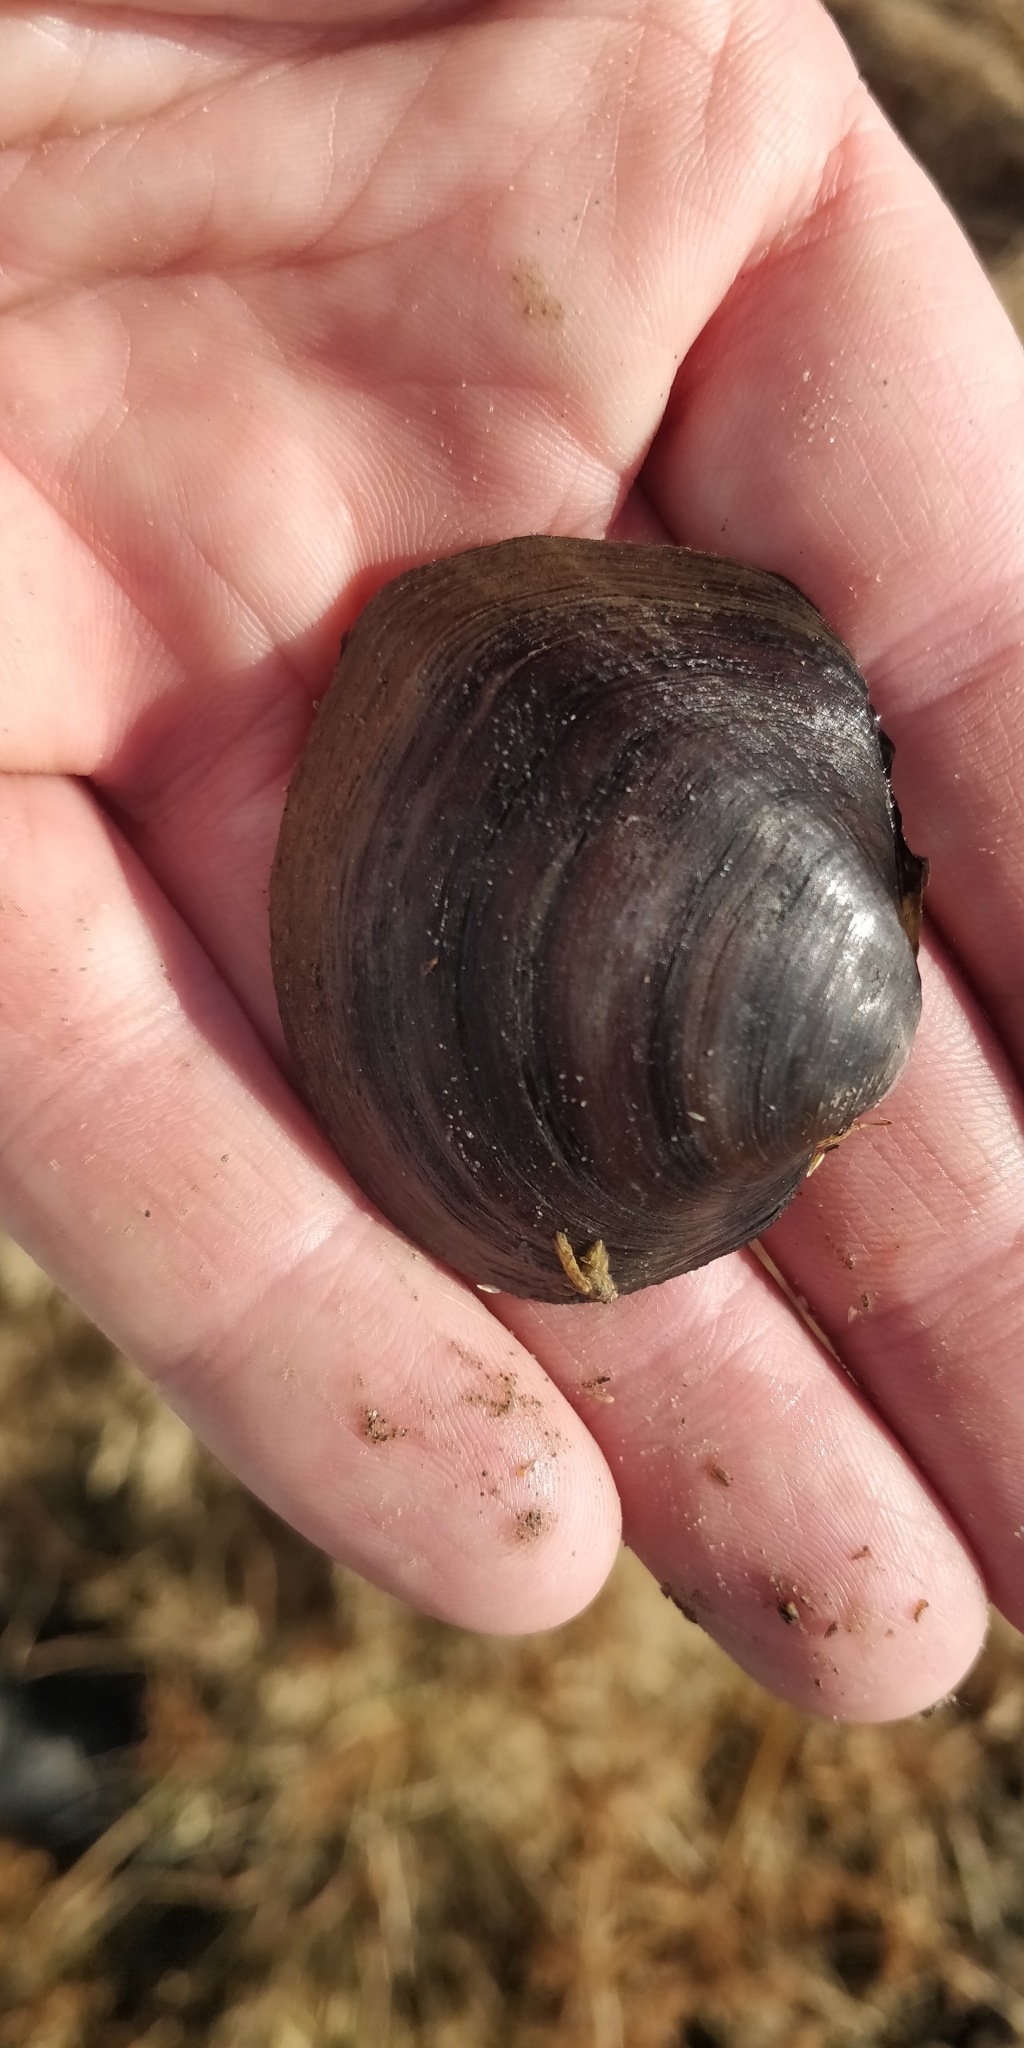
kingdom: Animalia
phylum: Mollusca
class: Bivalvia
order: Unionida
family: Unionidae
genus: Cyclonaias
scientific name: Cyclonaias pustulosa
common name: Pimpleback
